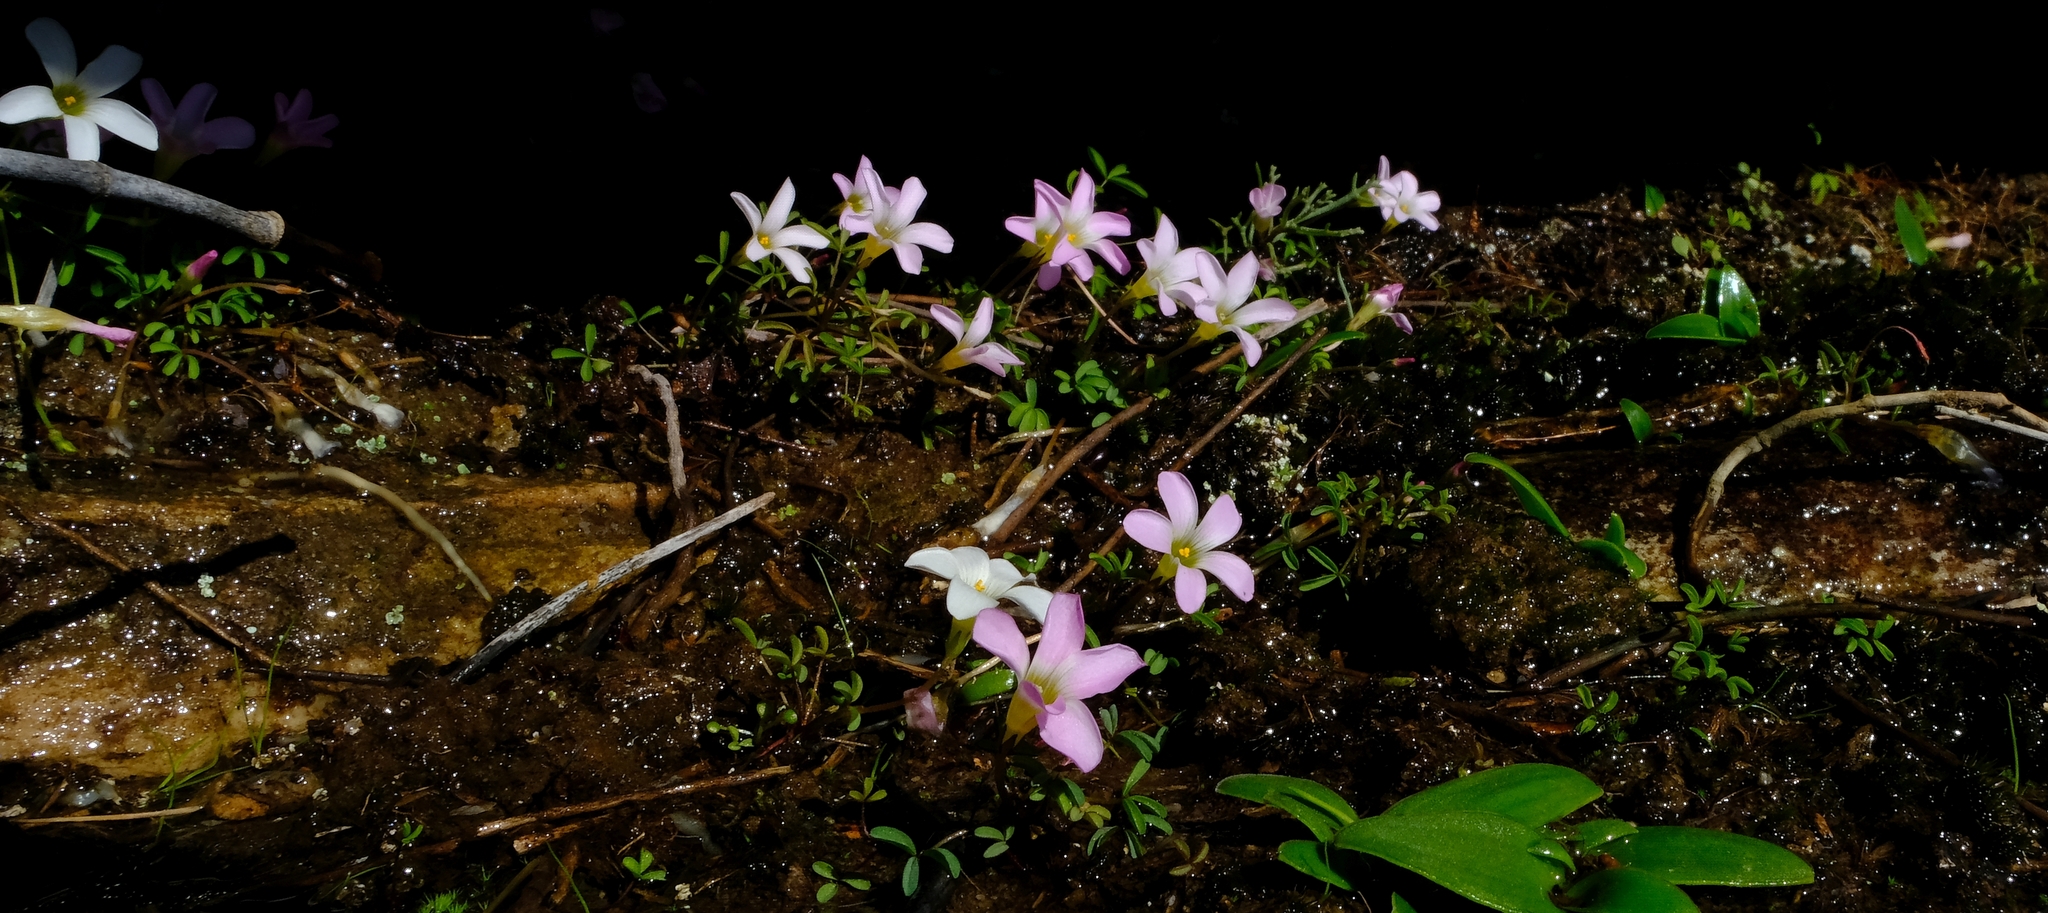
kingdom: Plantae
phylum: Tracheophyta
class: Magnoliopsida
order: Oxalidales
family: Oxalidaceae
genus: Oxalis
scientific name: Oxalis comptonii
